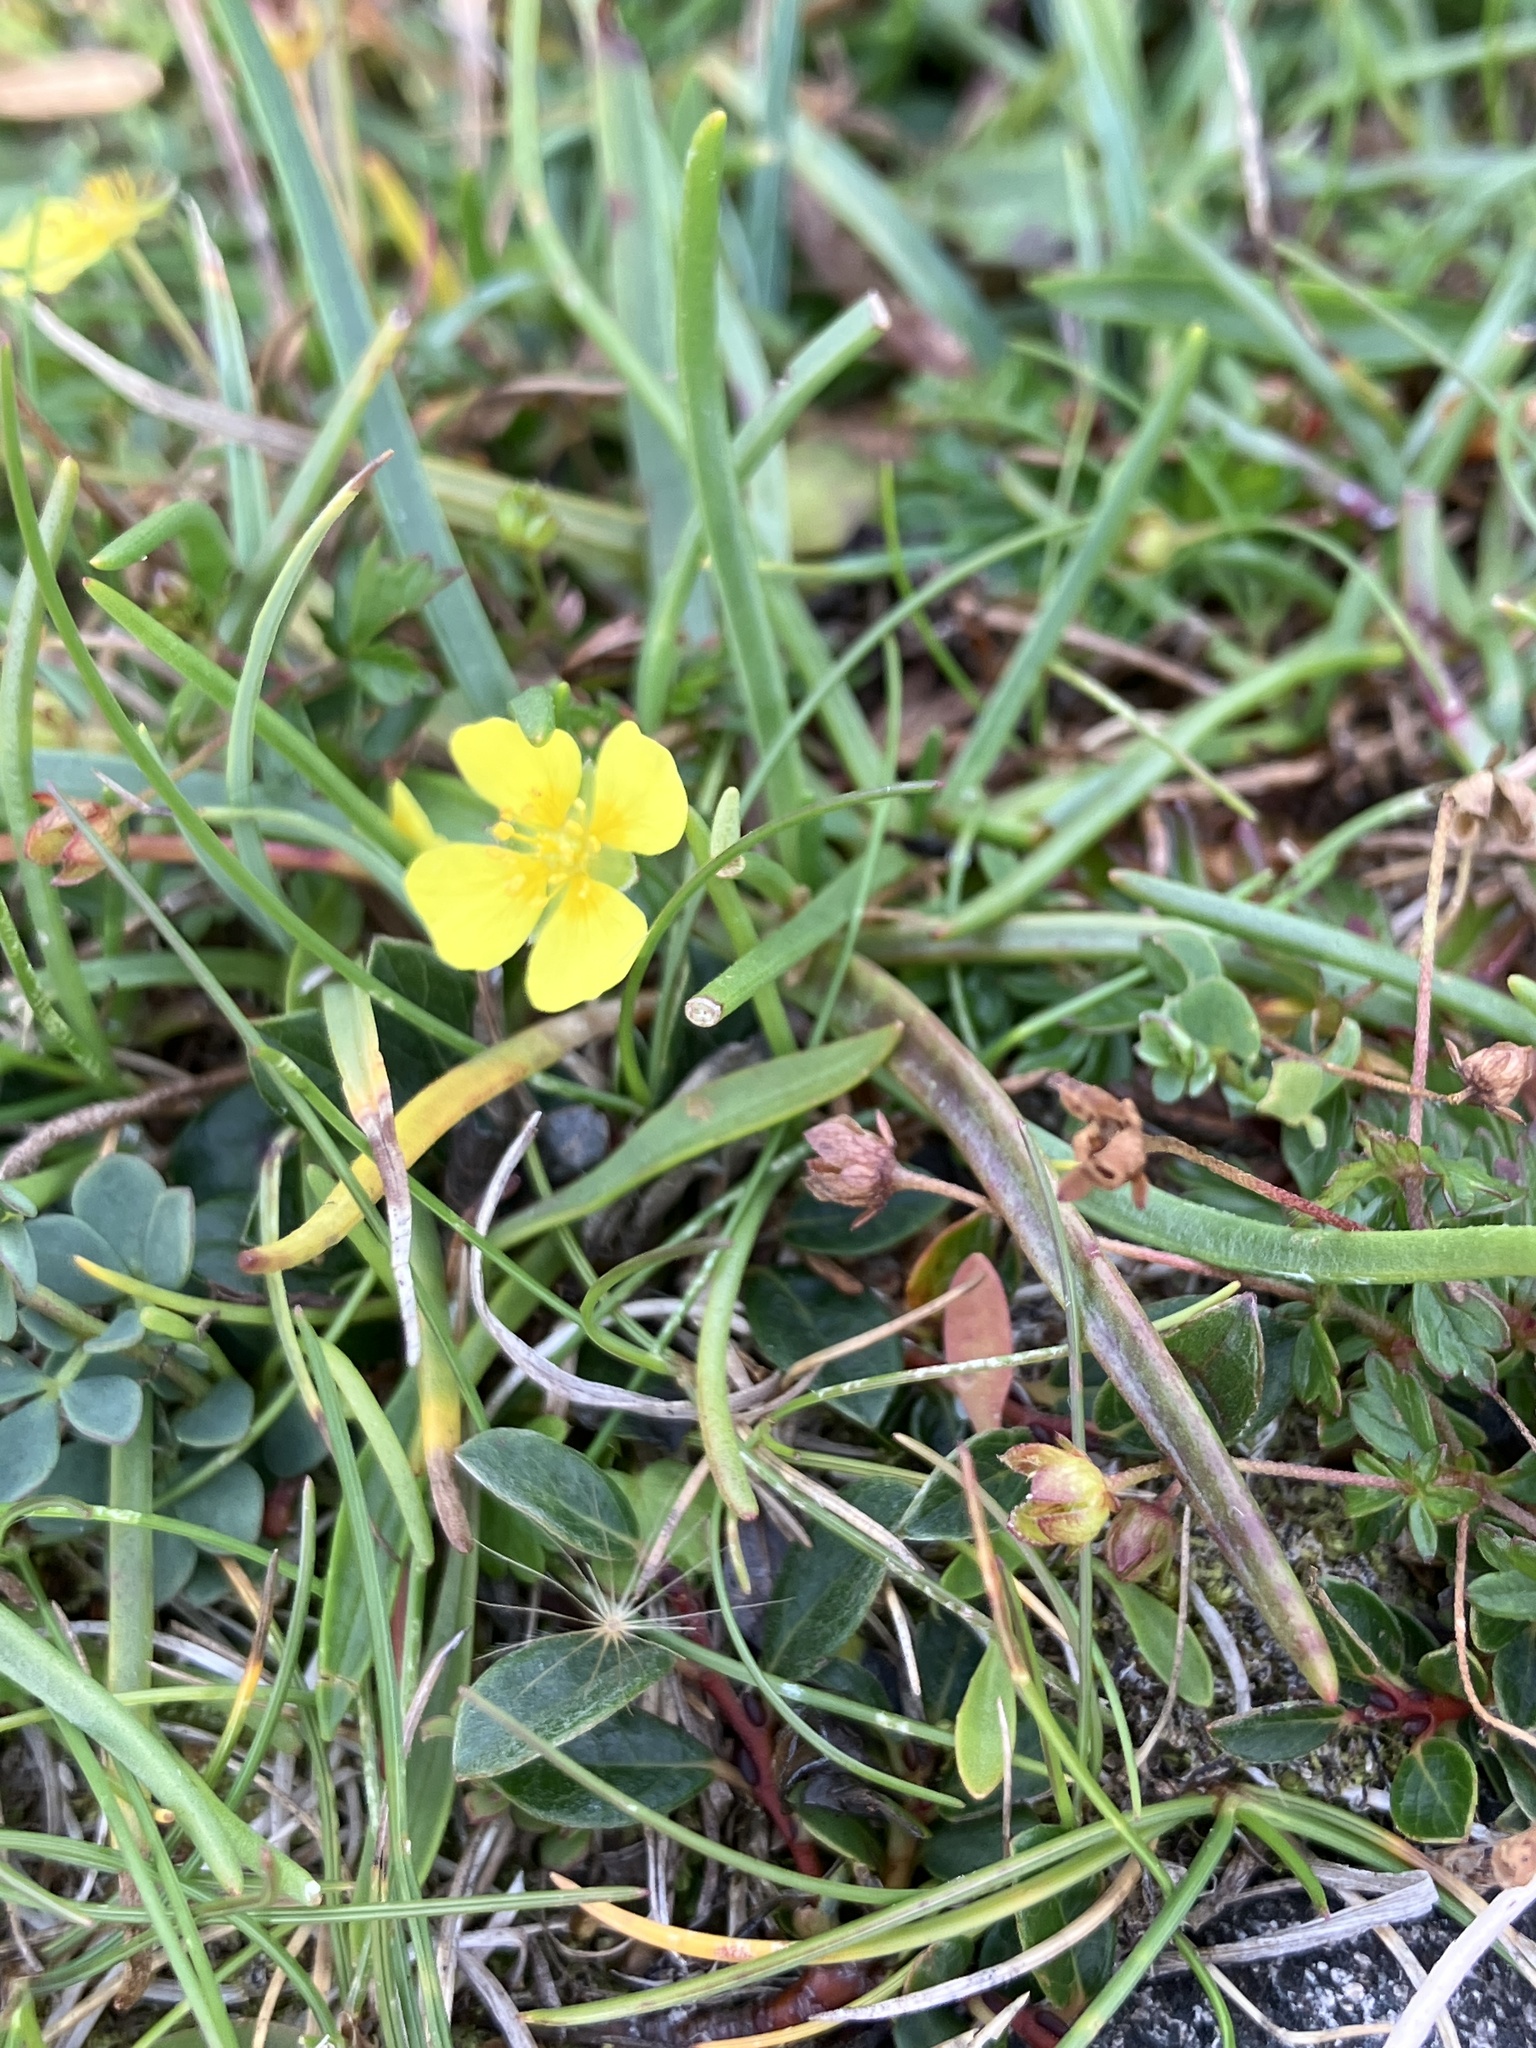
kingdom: Plantae
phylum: Tracheophyta
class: Magnoliopsida
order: Rosales
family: Rosaceae
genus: Potentilla
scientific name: Potentilla erecta
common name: Tormentil
